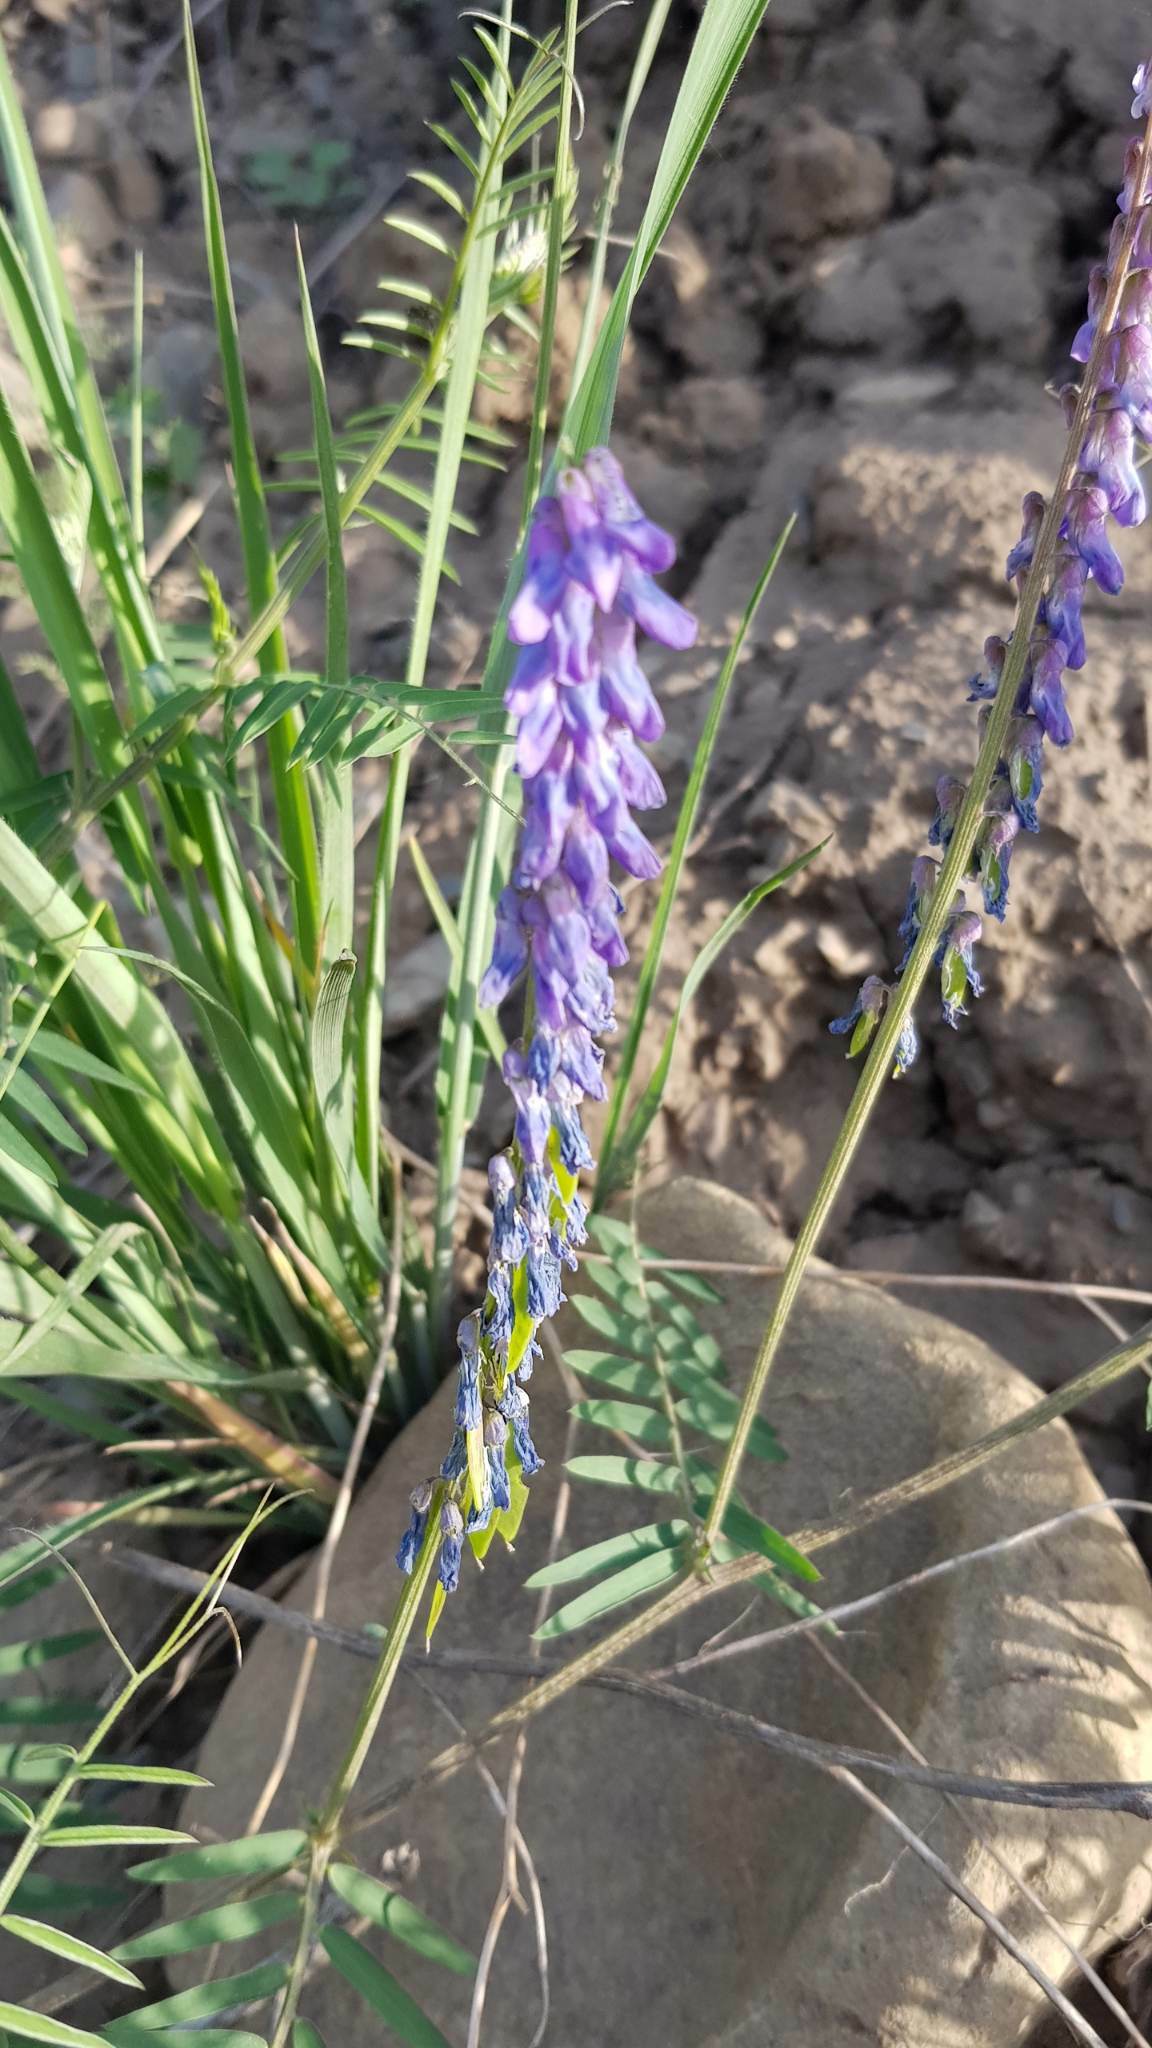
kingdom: Plantae
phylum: Tracheophyta
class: Magnoliopsida
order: Fabales
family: Fabaceae
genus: Vicia
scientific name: Vicia cracca
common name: Bird vetch
